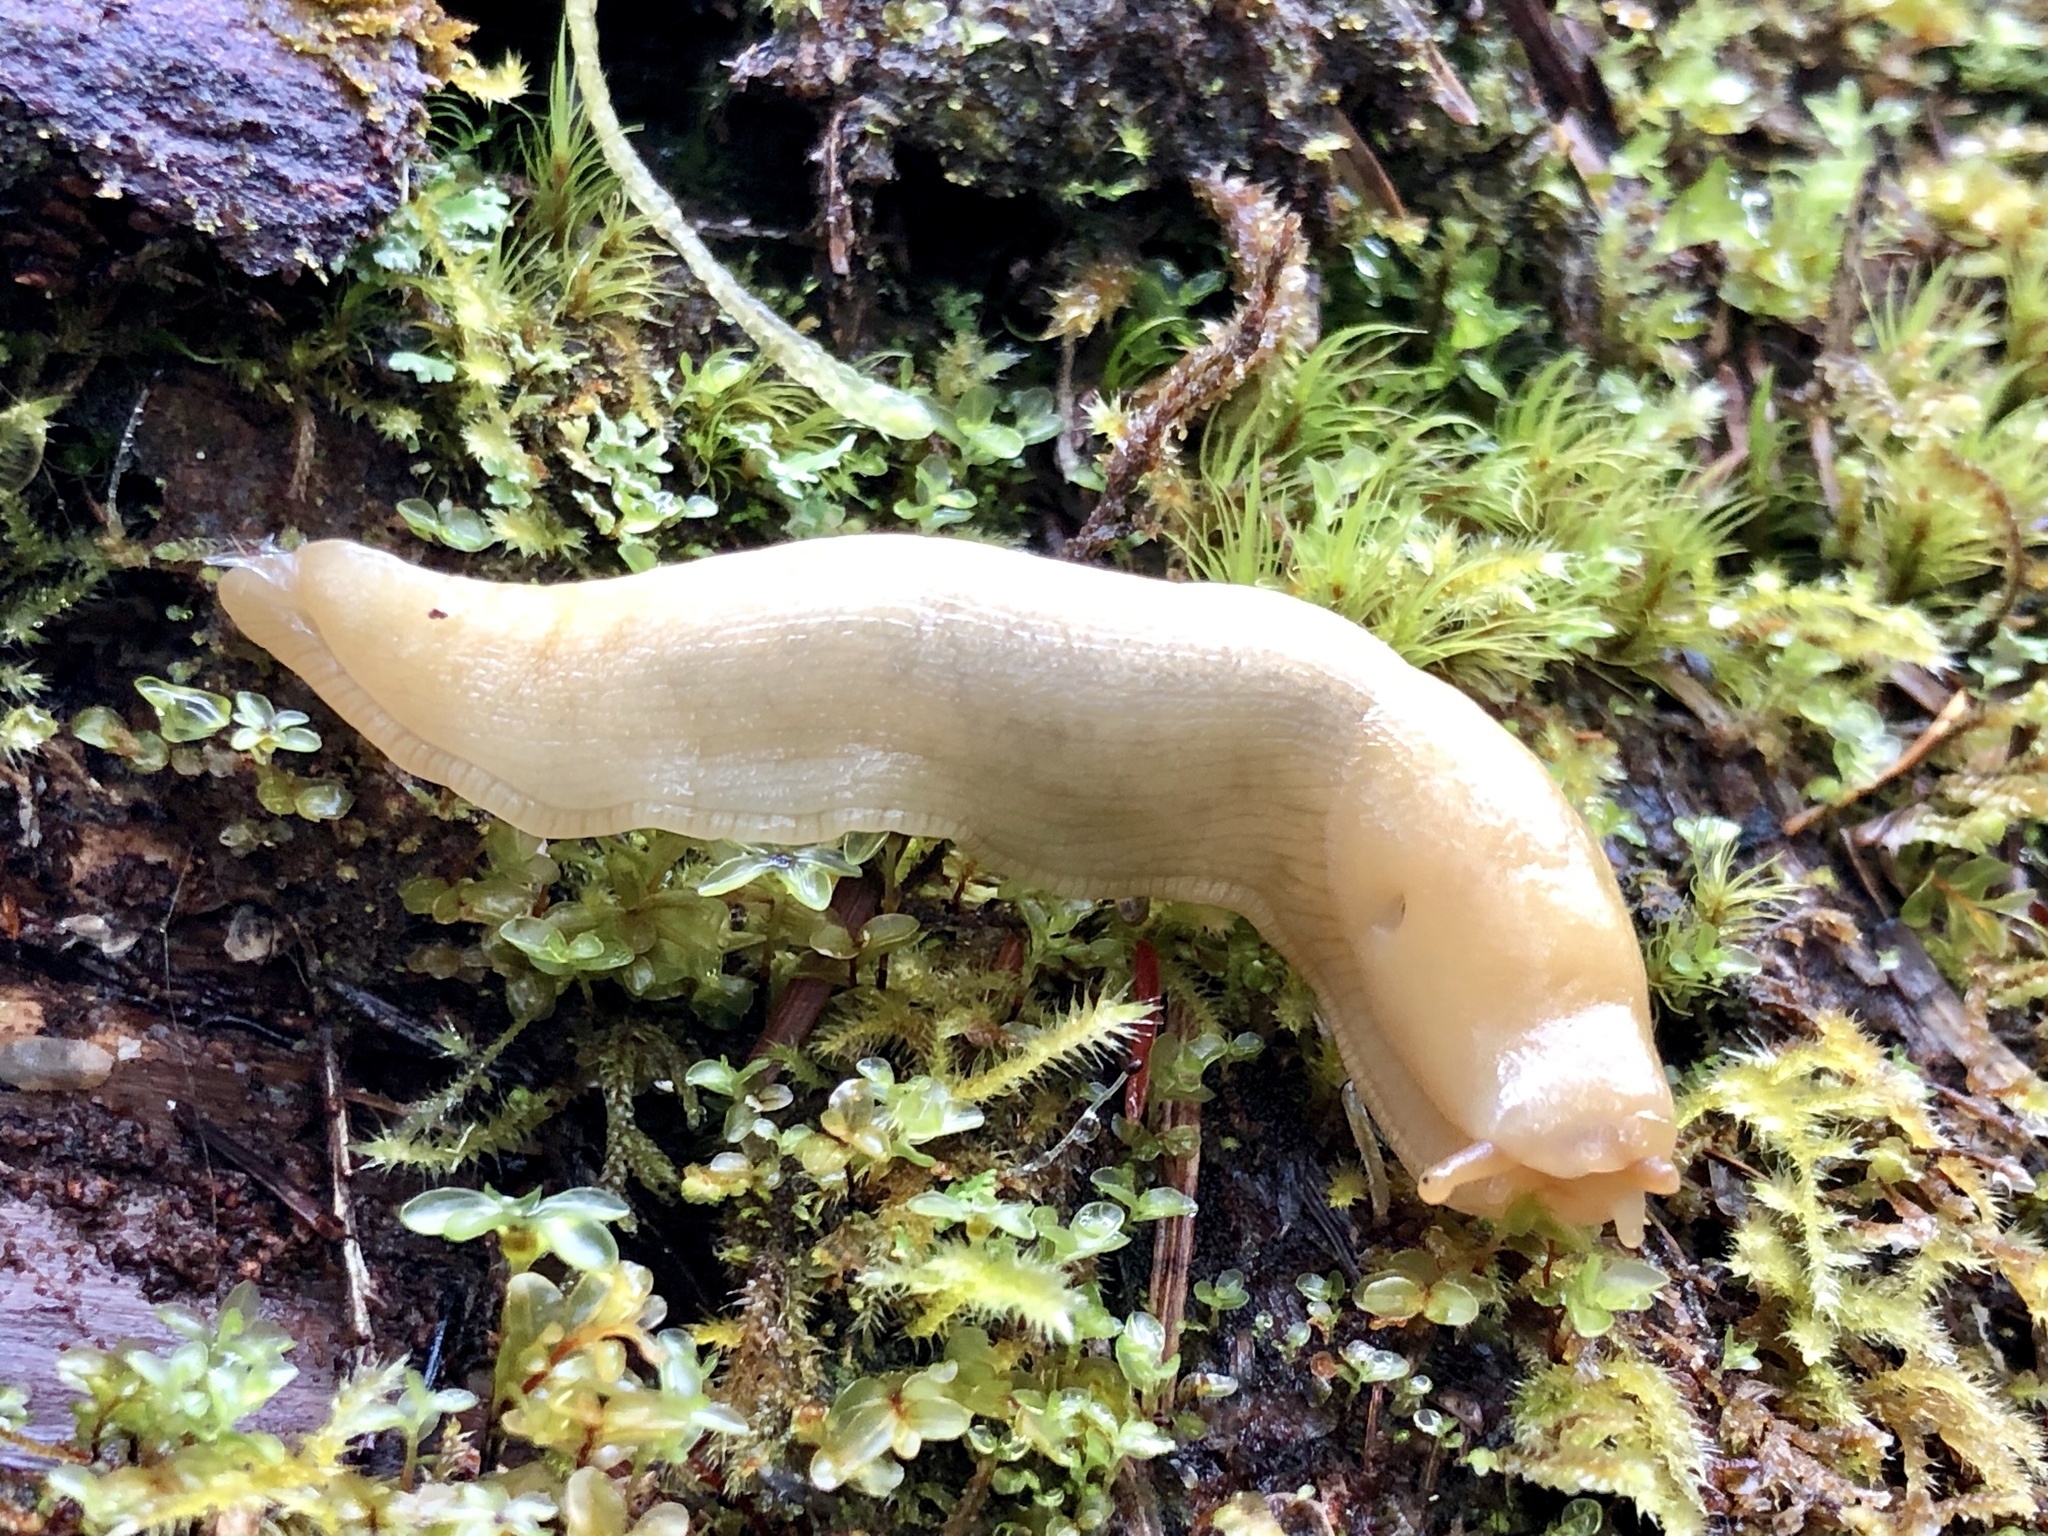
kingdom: Animalia
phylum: Mollusca
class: Gastropoda
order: Stylommatophora
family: Ariolimacidae
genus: Ariolimax
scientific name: Ariolimax columbianus
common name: Pacific banana slug
